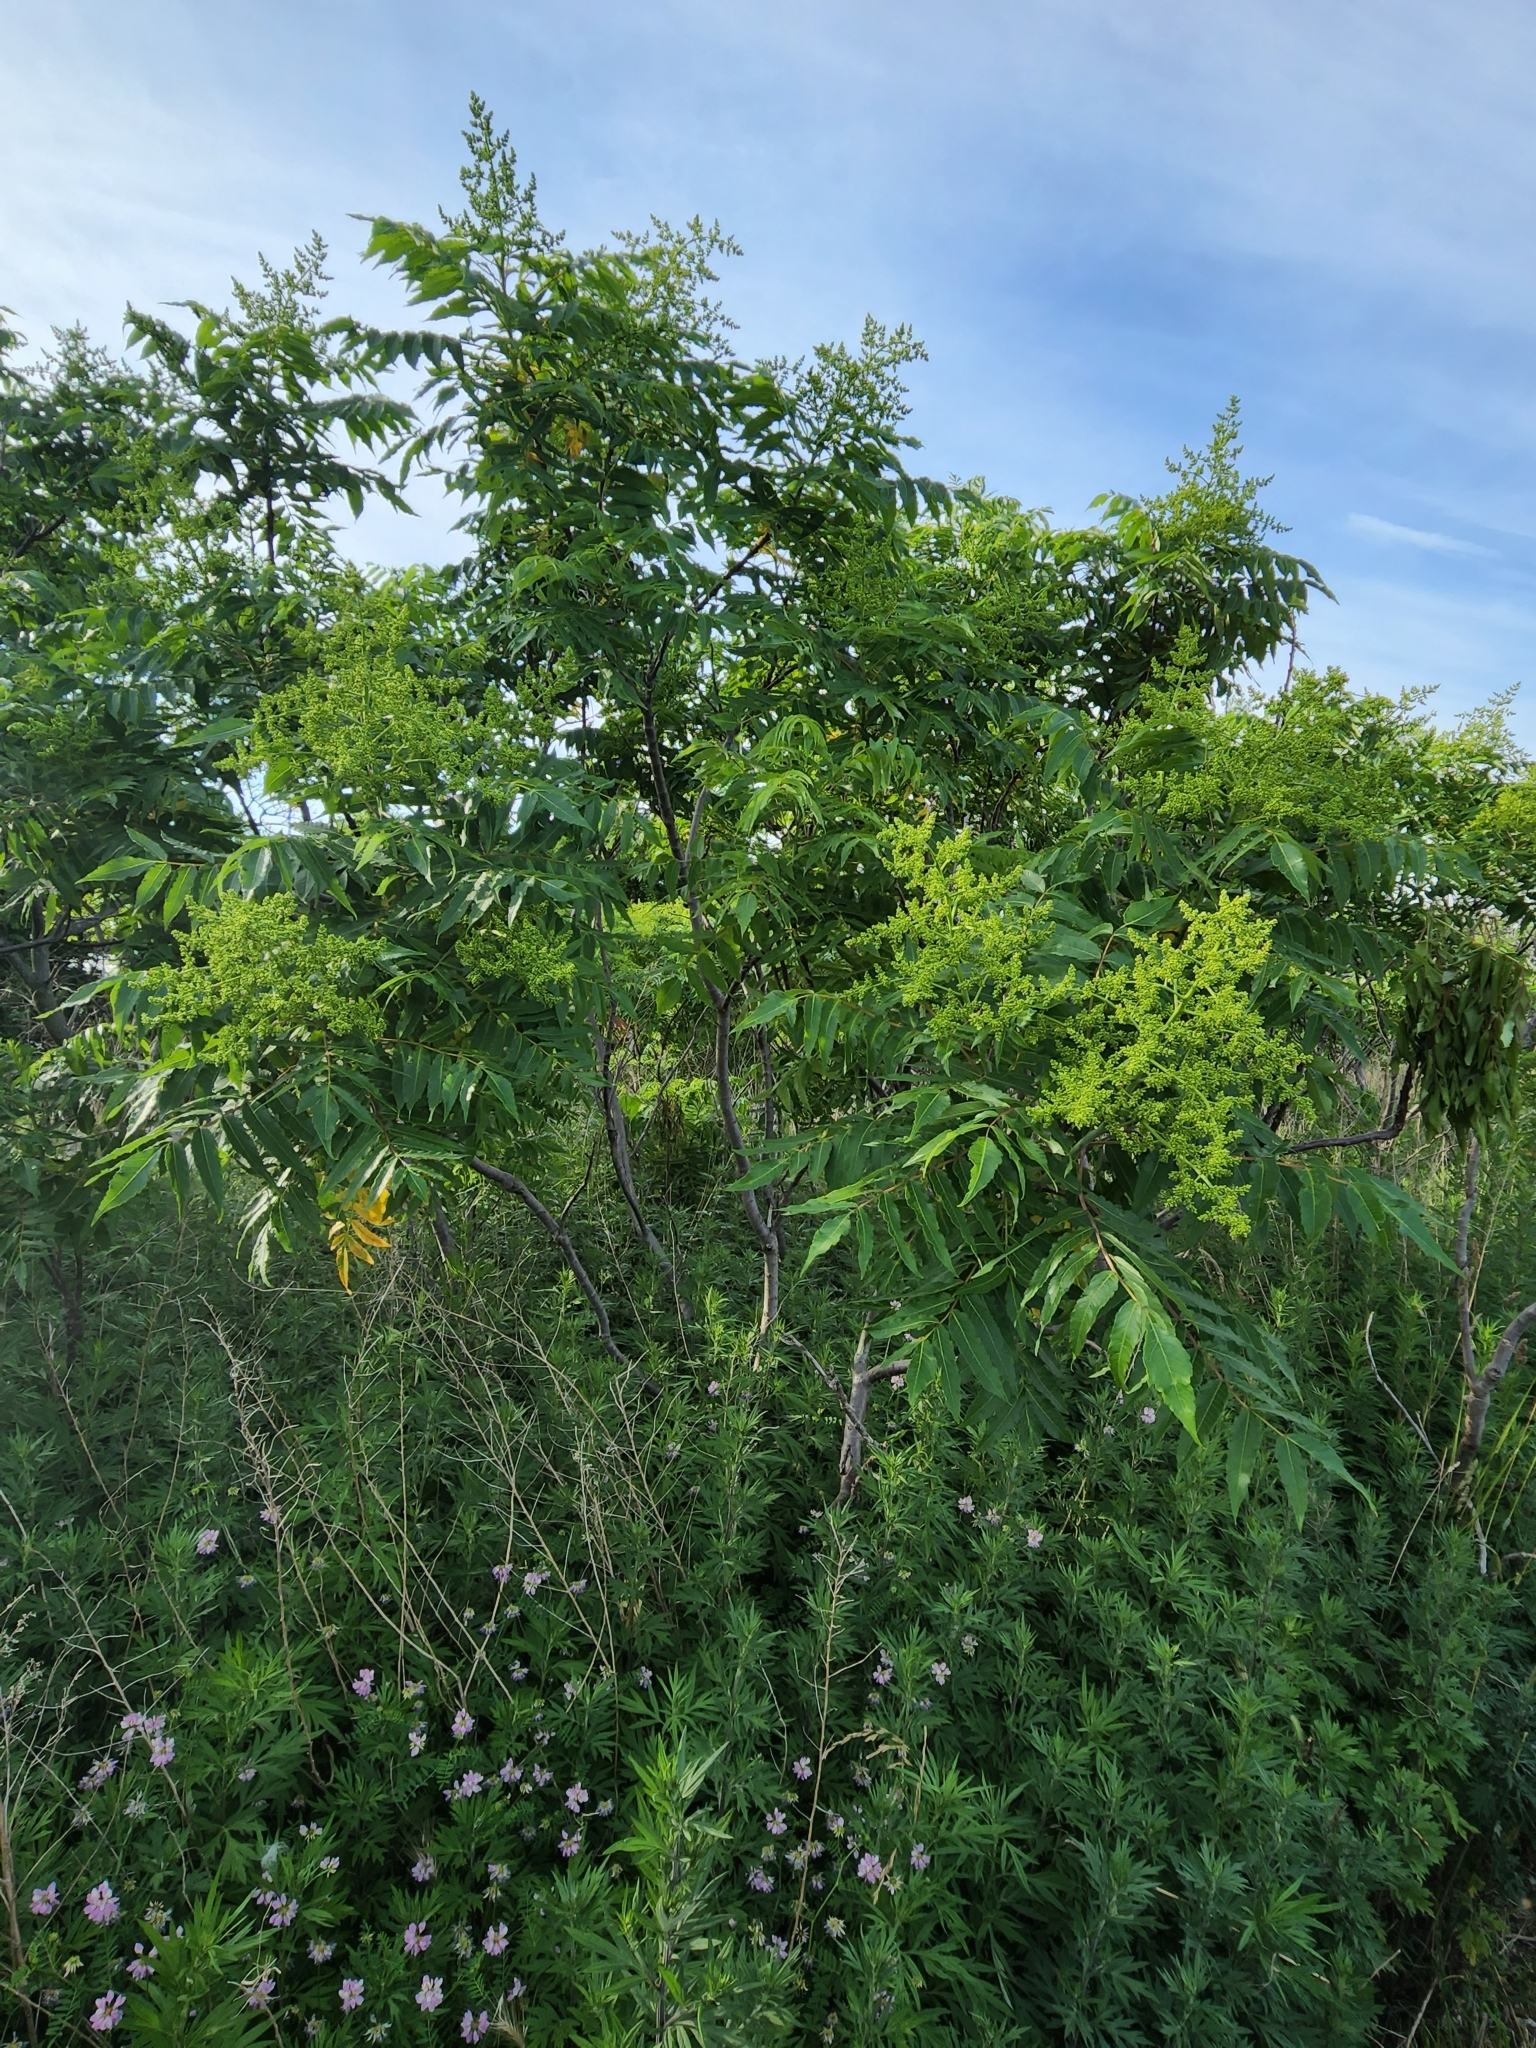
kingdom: Plantae
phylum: Tracheophyta
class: Magnoliopsida
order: Sapindales
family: Anacardiaceae
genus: Rhus
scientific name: Rhus glabra
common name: Scarlet sumac
